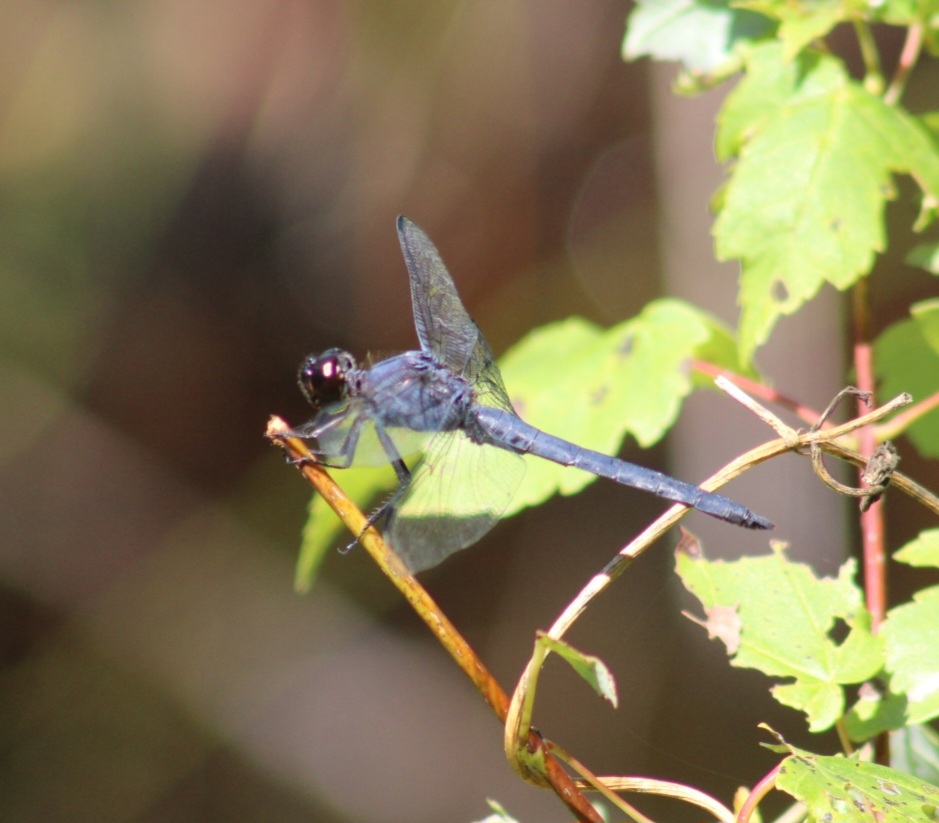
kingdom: Animalia
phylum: Arthropoda
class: Insecta
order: Odonata
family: Libellulidae
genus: Libellula
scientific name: Libellula incesta
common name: Slaty skimmer
